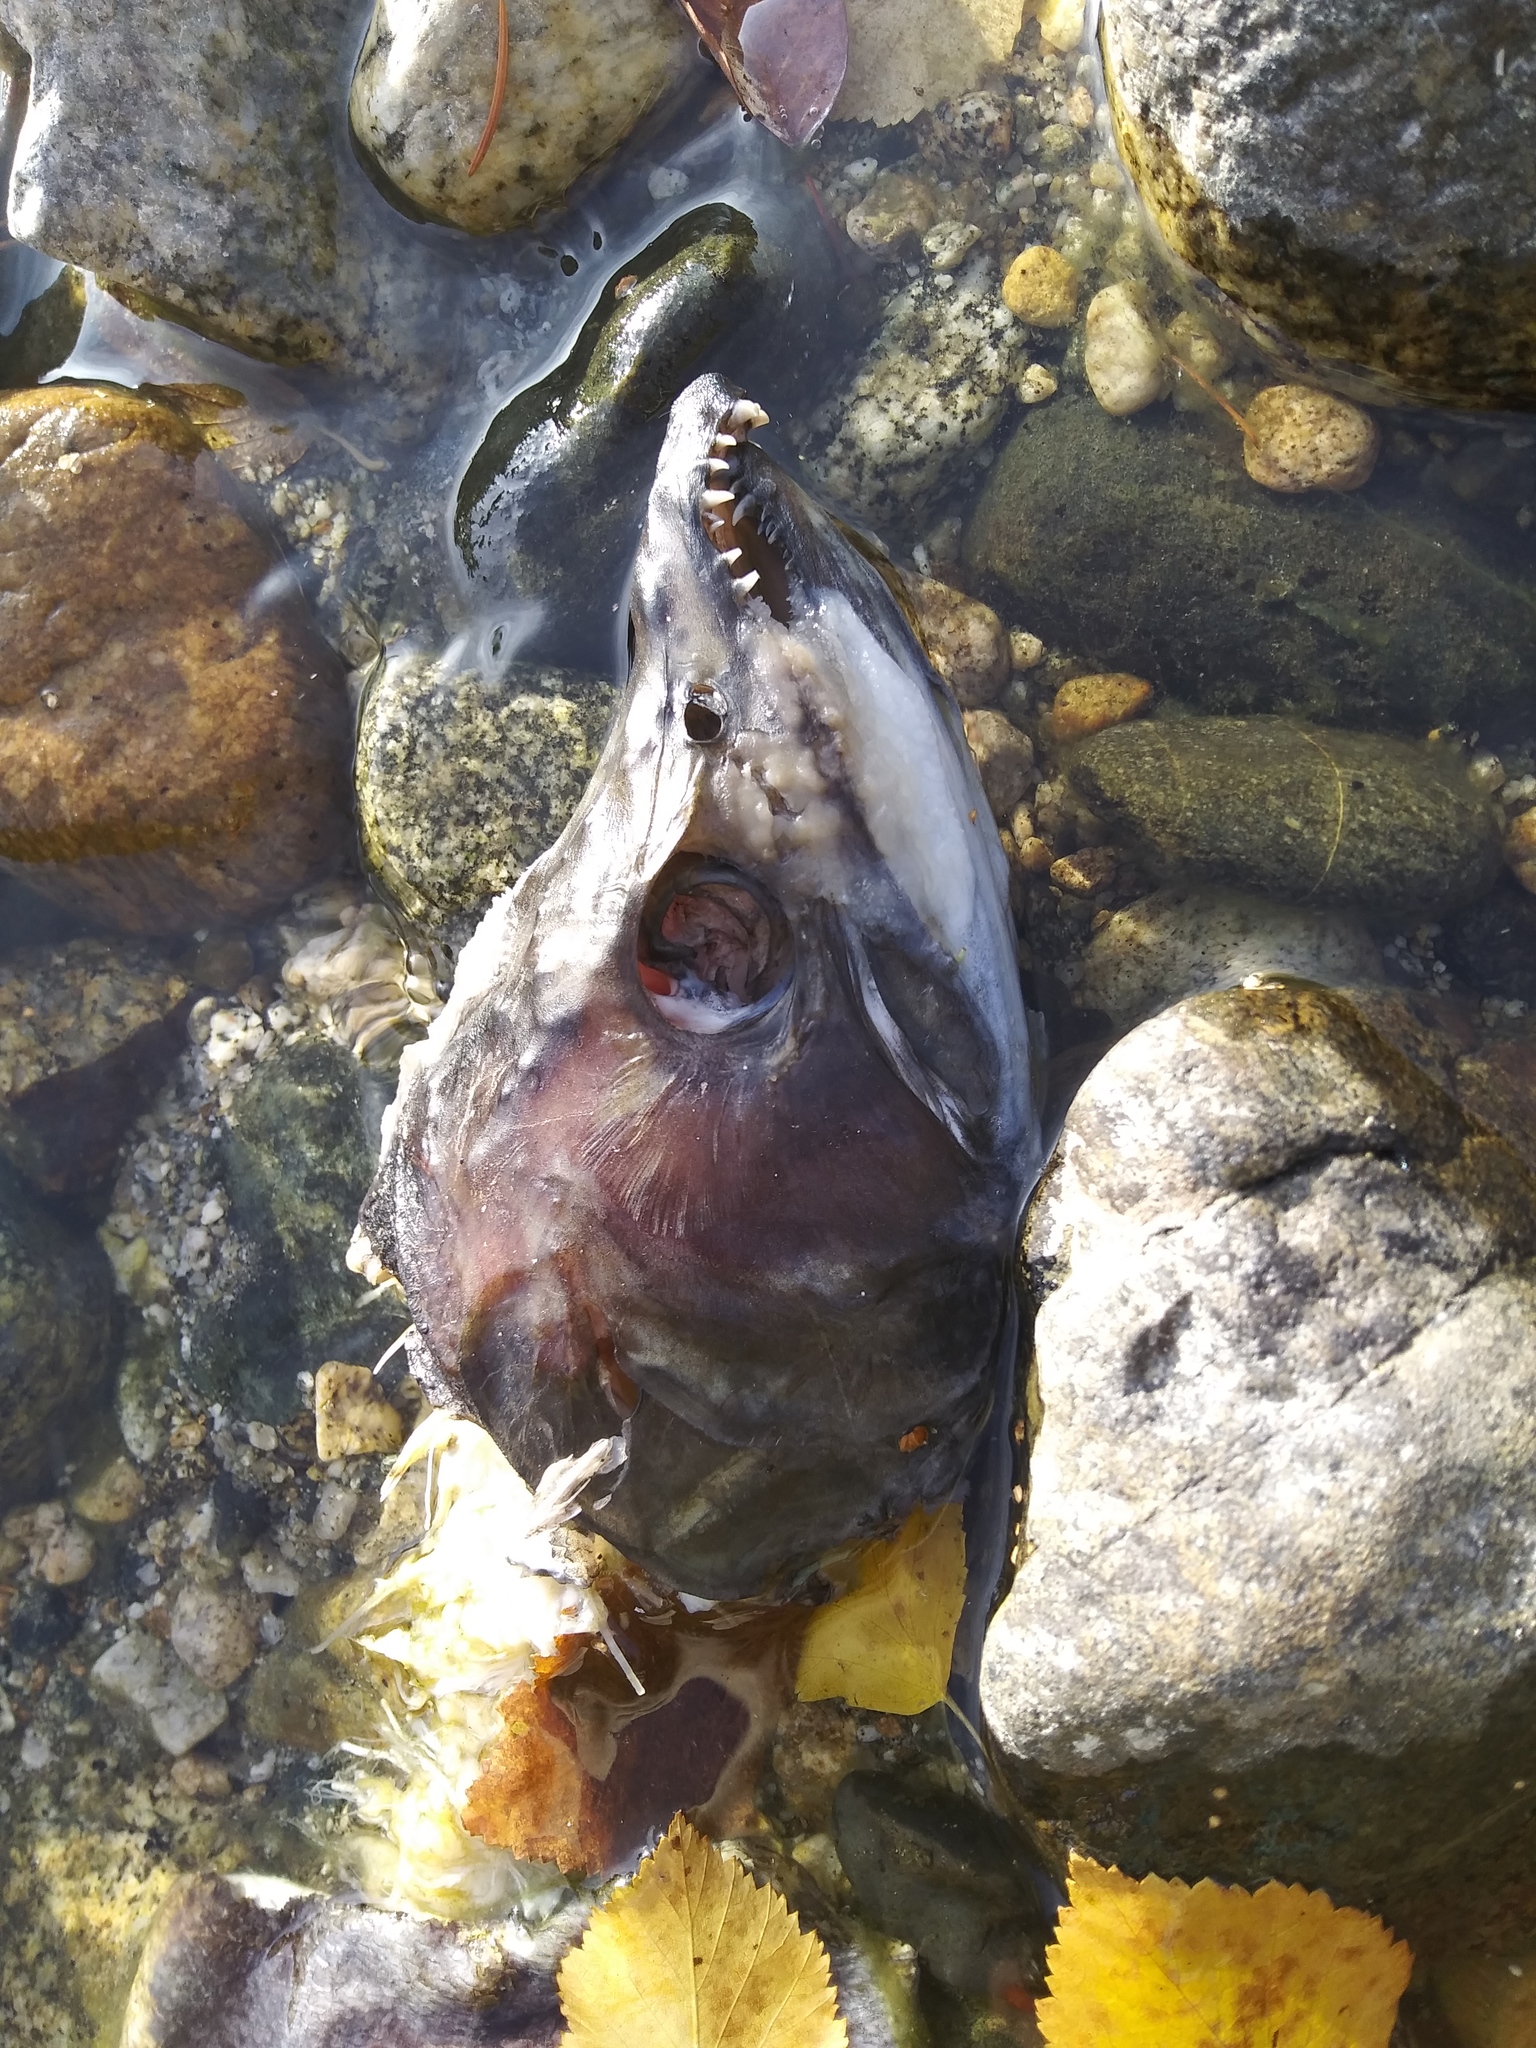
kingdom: Animalia
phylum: Chordata
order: Salmoniformes
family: Salmonidae
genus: Oncorhynchus
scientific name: Oncorhynchus nerka
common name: Sockeye salmon
